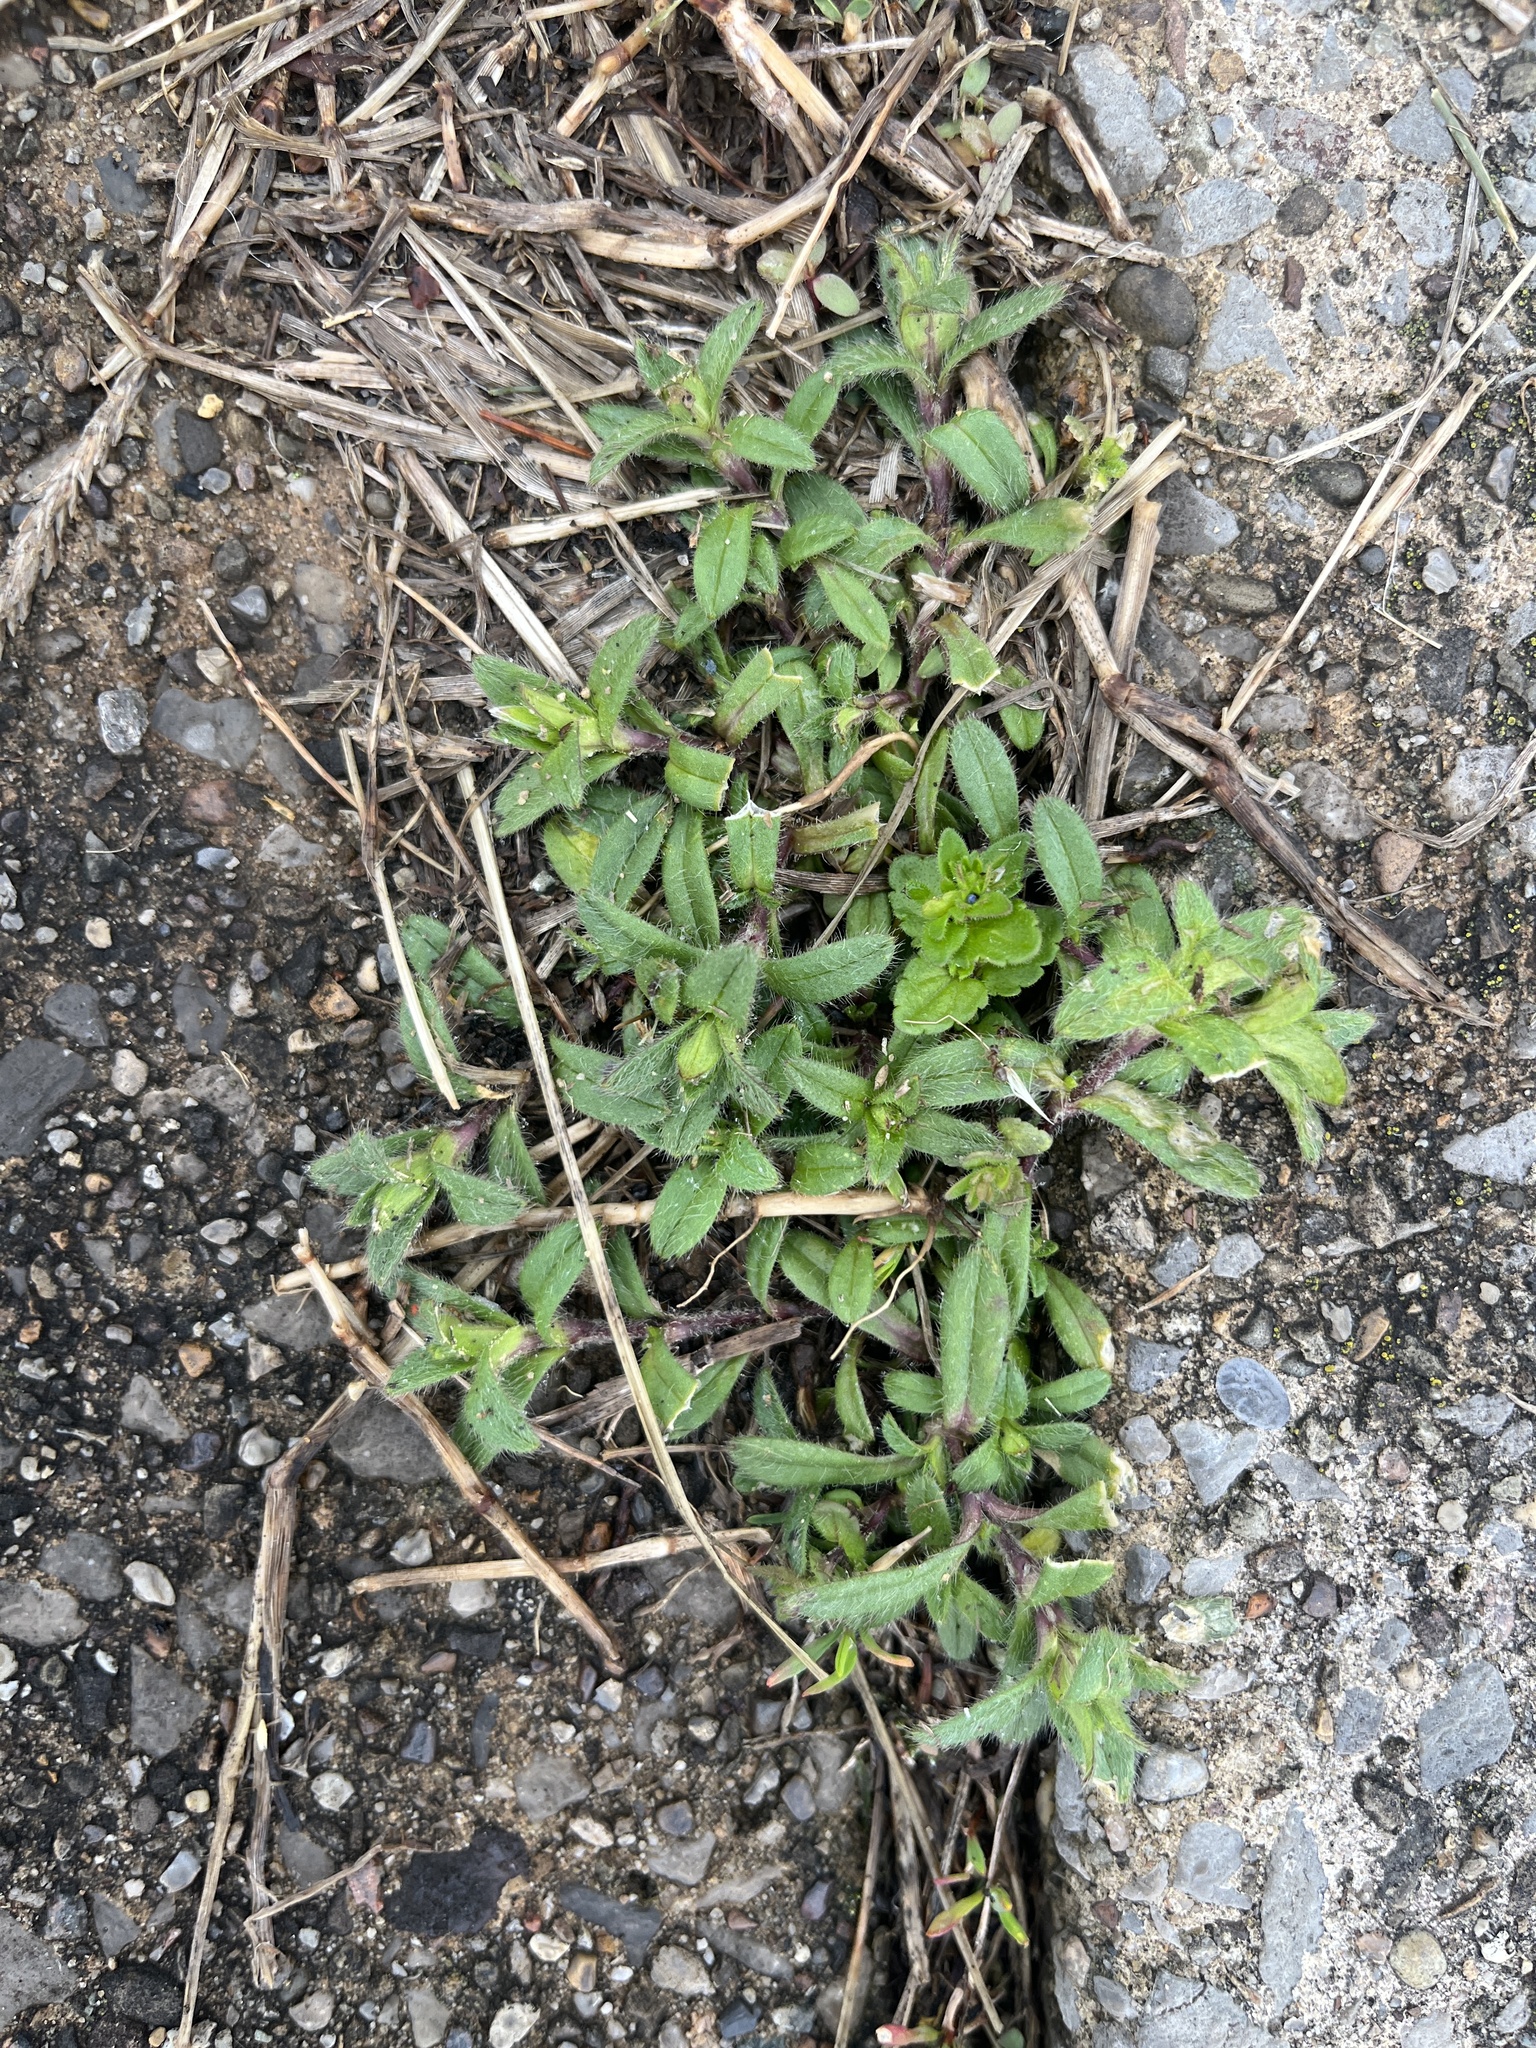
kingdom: Plantae
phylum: Tracheophyta
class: Magnoliopsida
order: Caryophyllales
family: Caryophyllaceae
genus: Cerastium
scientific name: Cerastium fontanum
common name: Common mouse-ear
